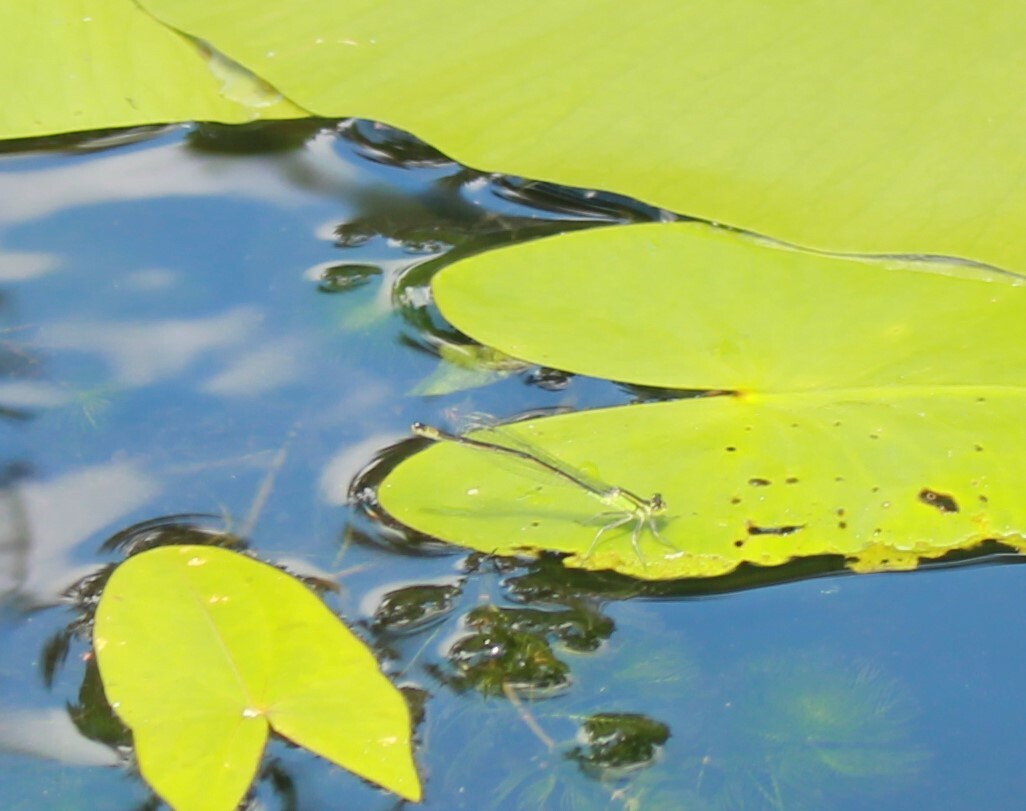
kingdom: Animalia
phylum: Arthropoda
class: Insecta
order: Odonata
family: Coenagrionidae
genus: Ischnura
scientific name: Ischnura elegans
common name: Blue-tailed damselfly
